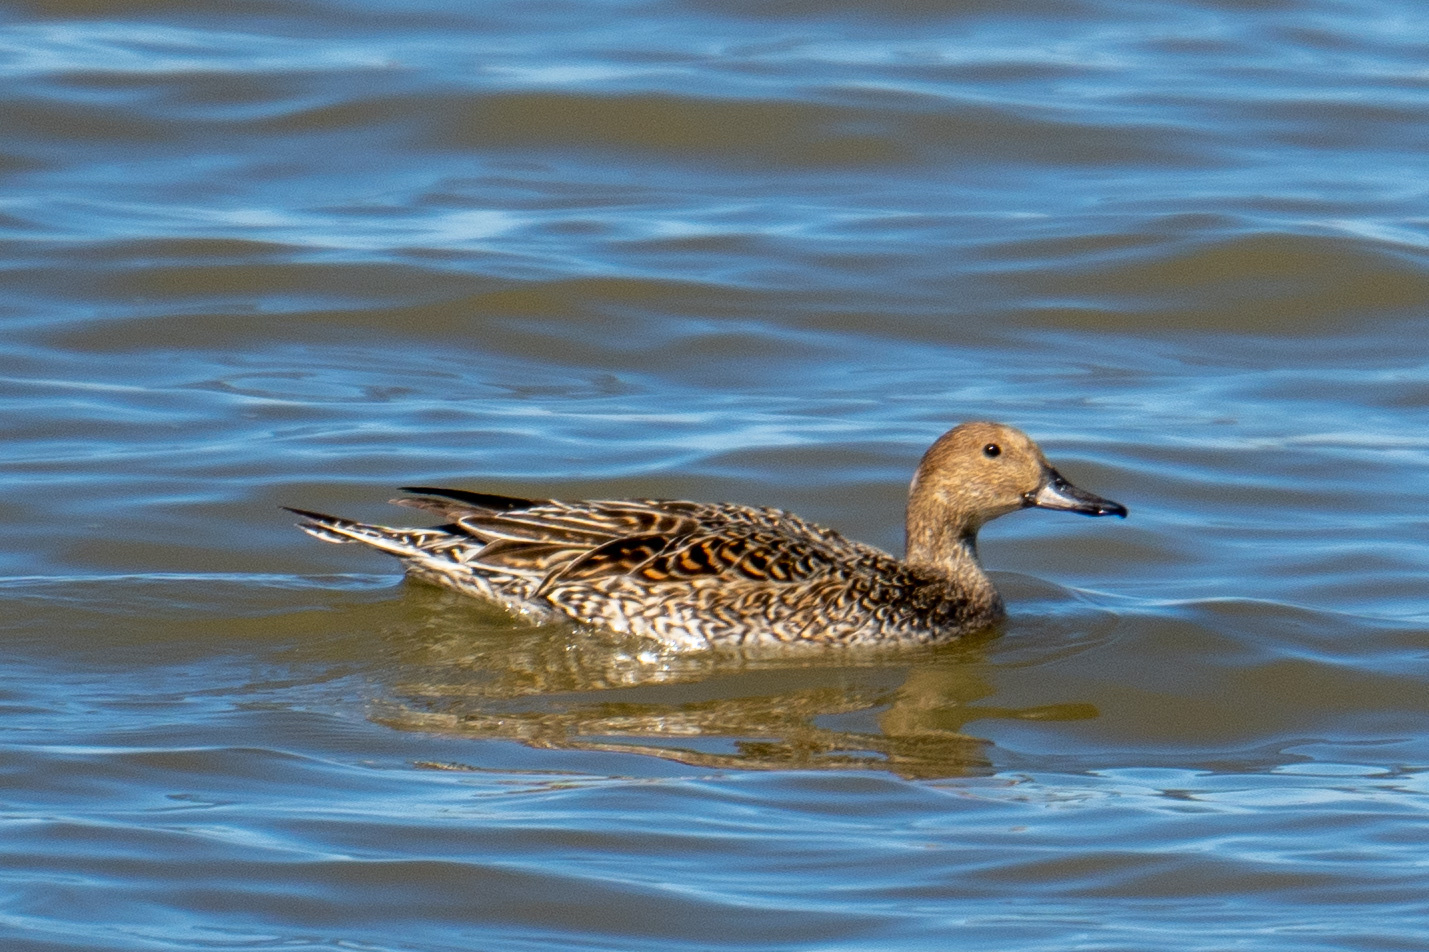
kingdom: Animalia
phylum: Chordata
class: Aves
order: Anseriformes
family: Anatidae
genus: Anas
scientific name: Anas acuta
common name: Northern pintail
